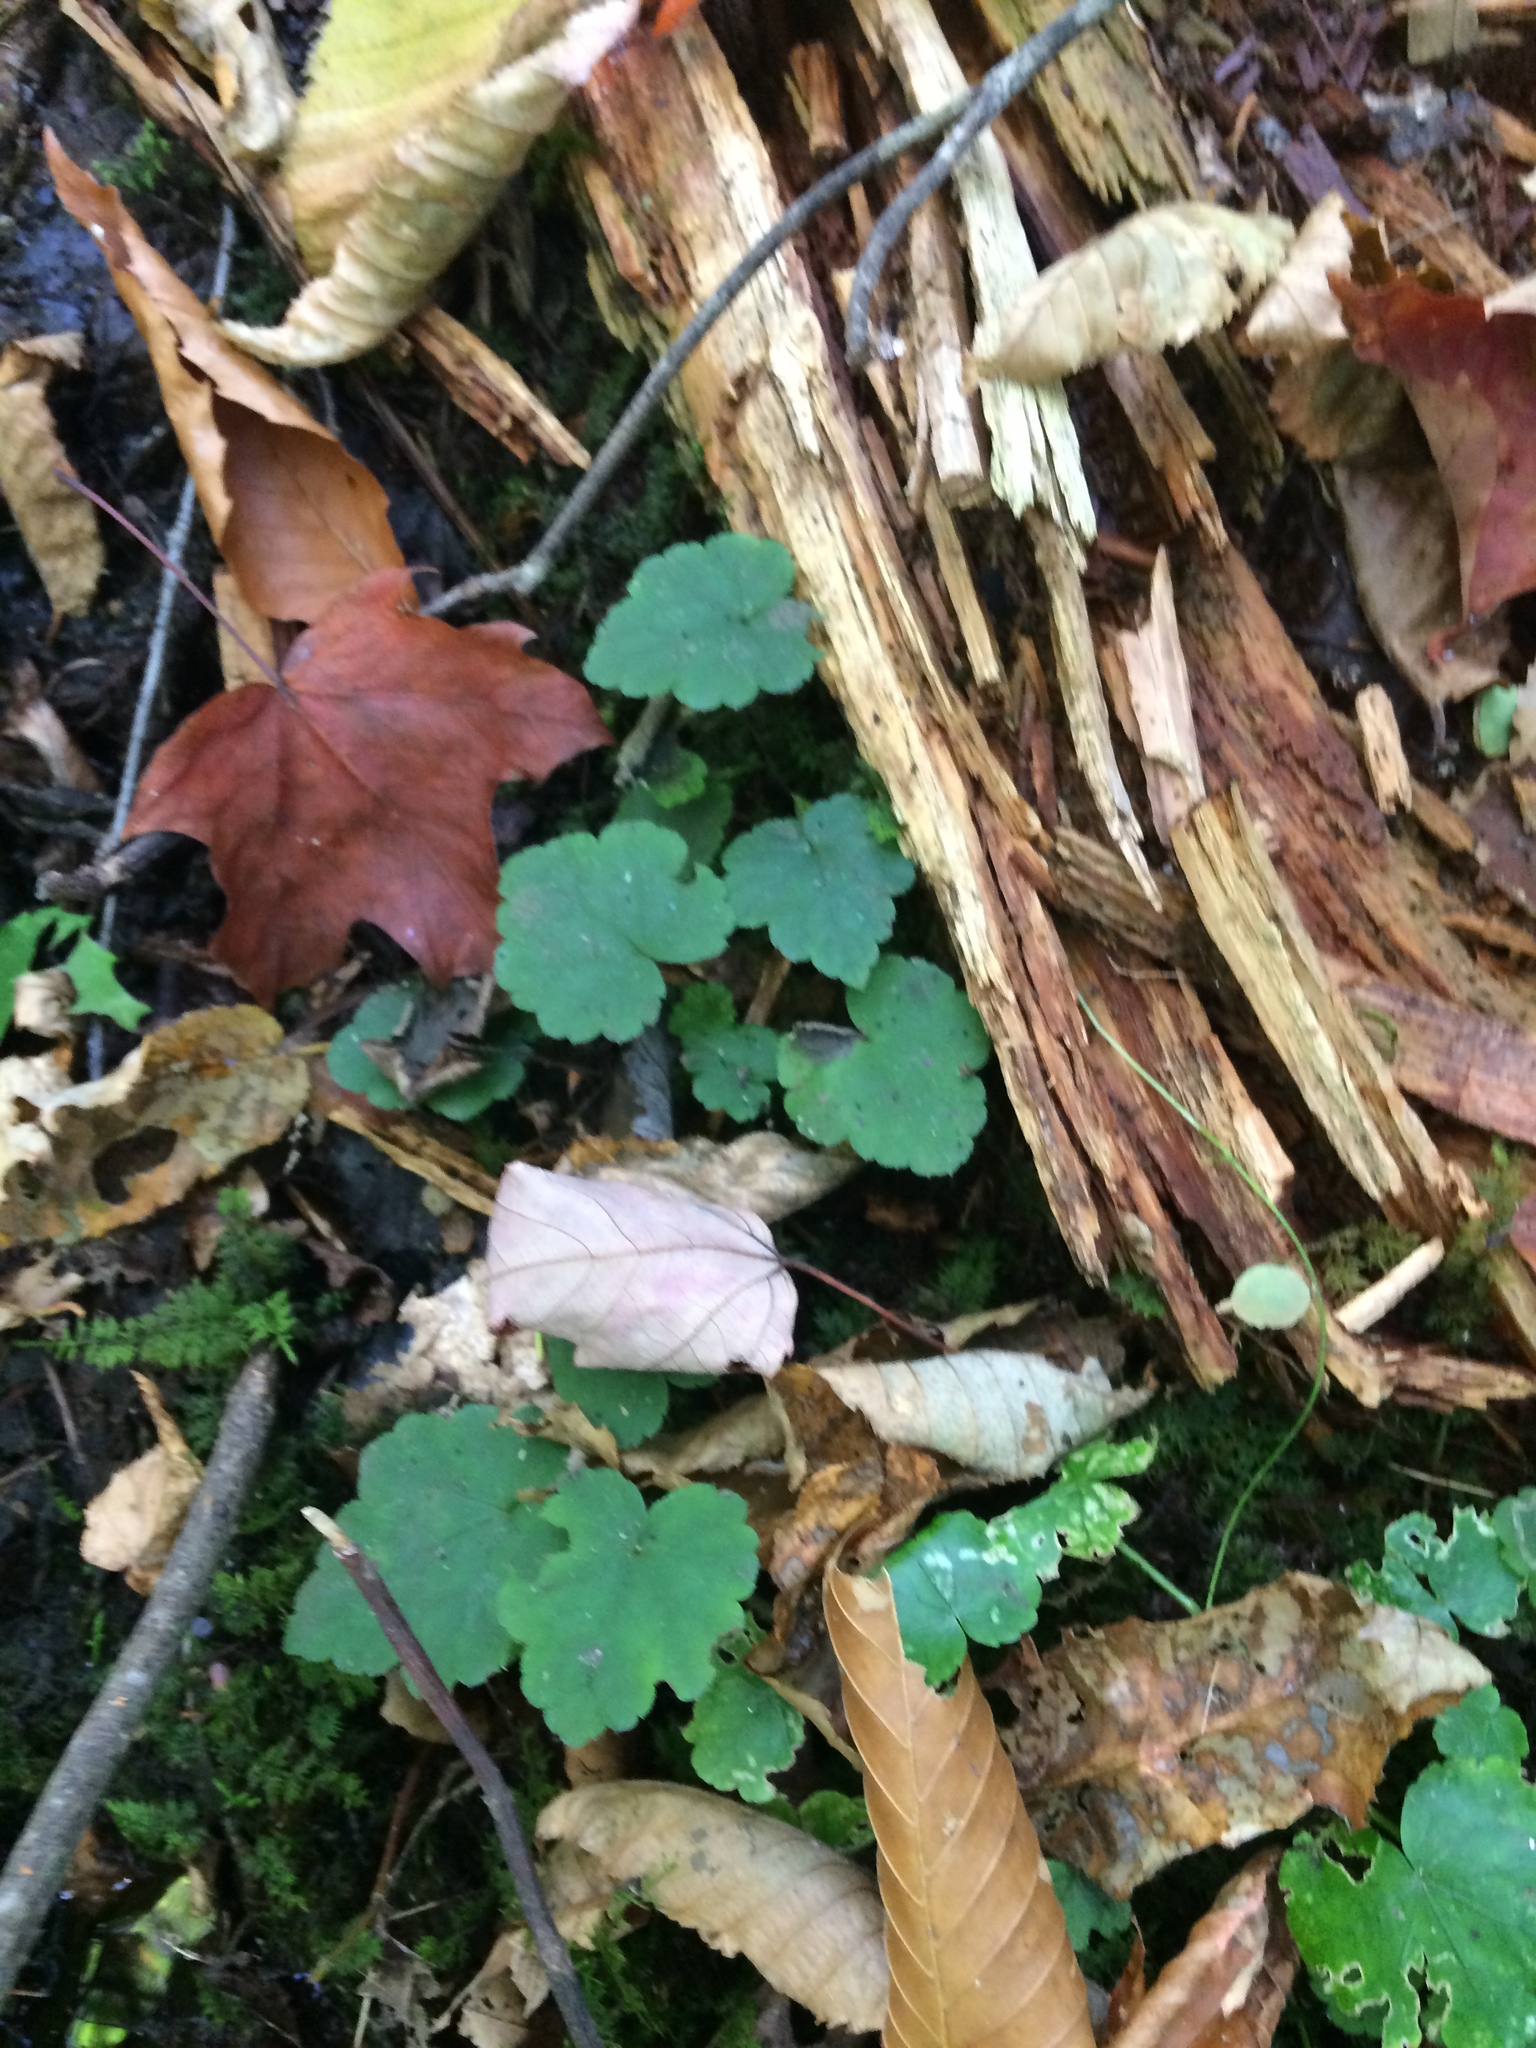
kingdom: Plantae
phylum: Tracheophyta
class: Magnoliopsida
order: Saxifragales
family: Saxifragaceae
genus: Tiarella
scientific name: Tiarella stolonifera
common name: Stoloniferous foamflower
